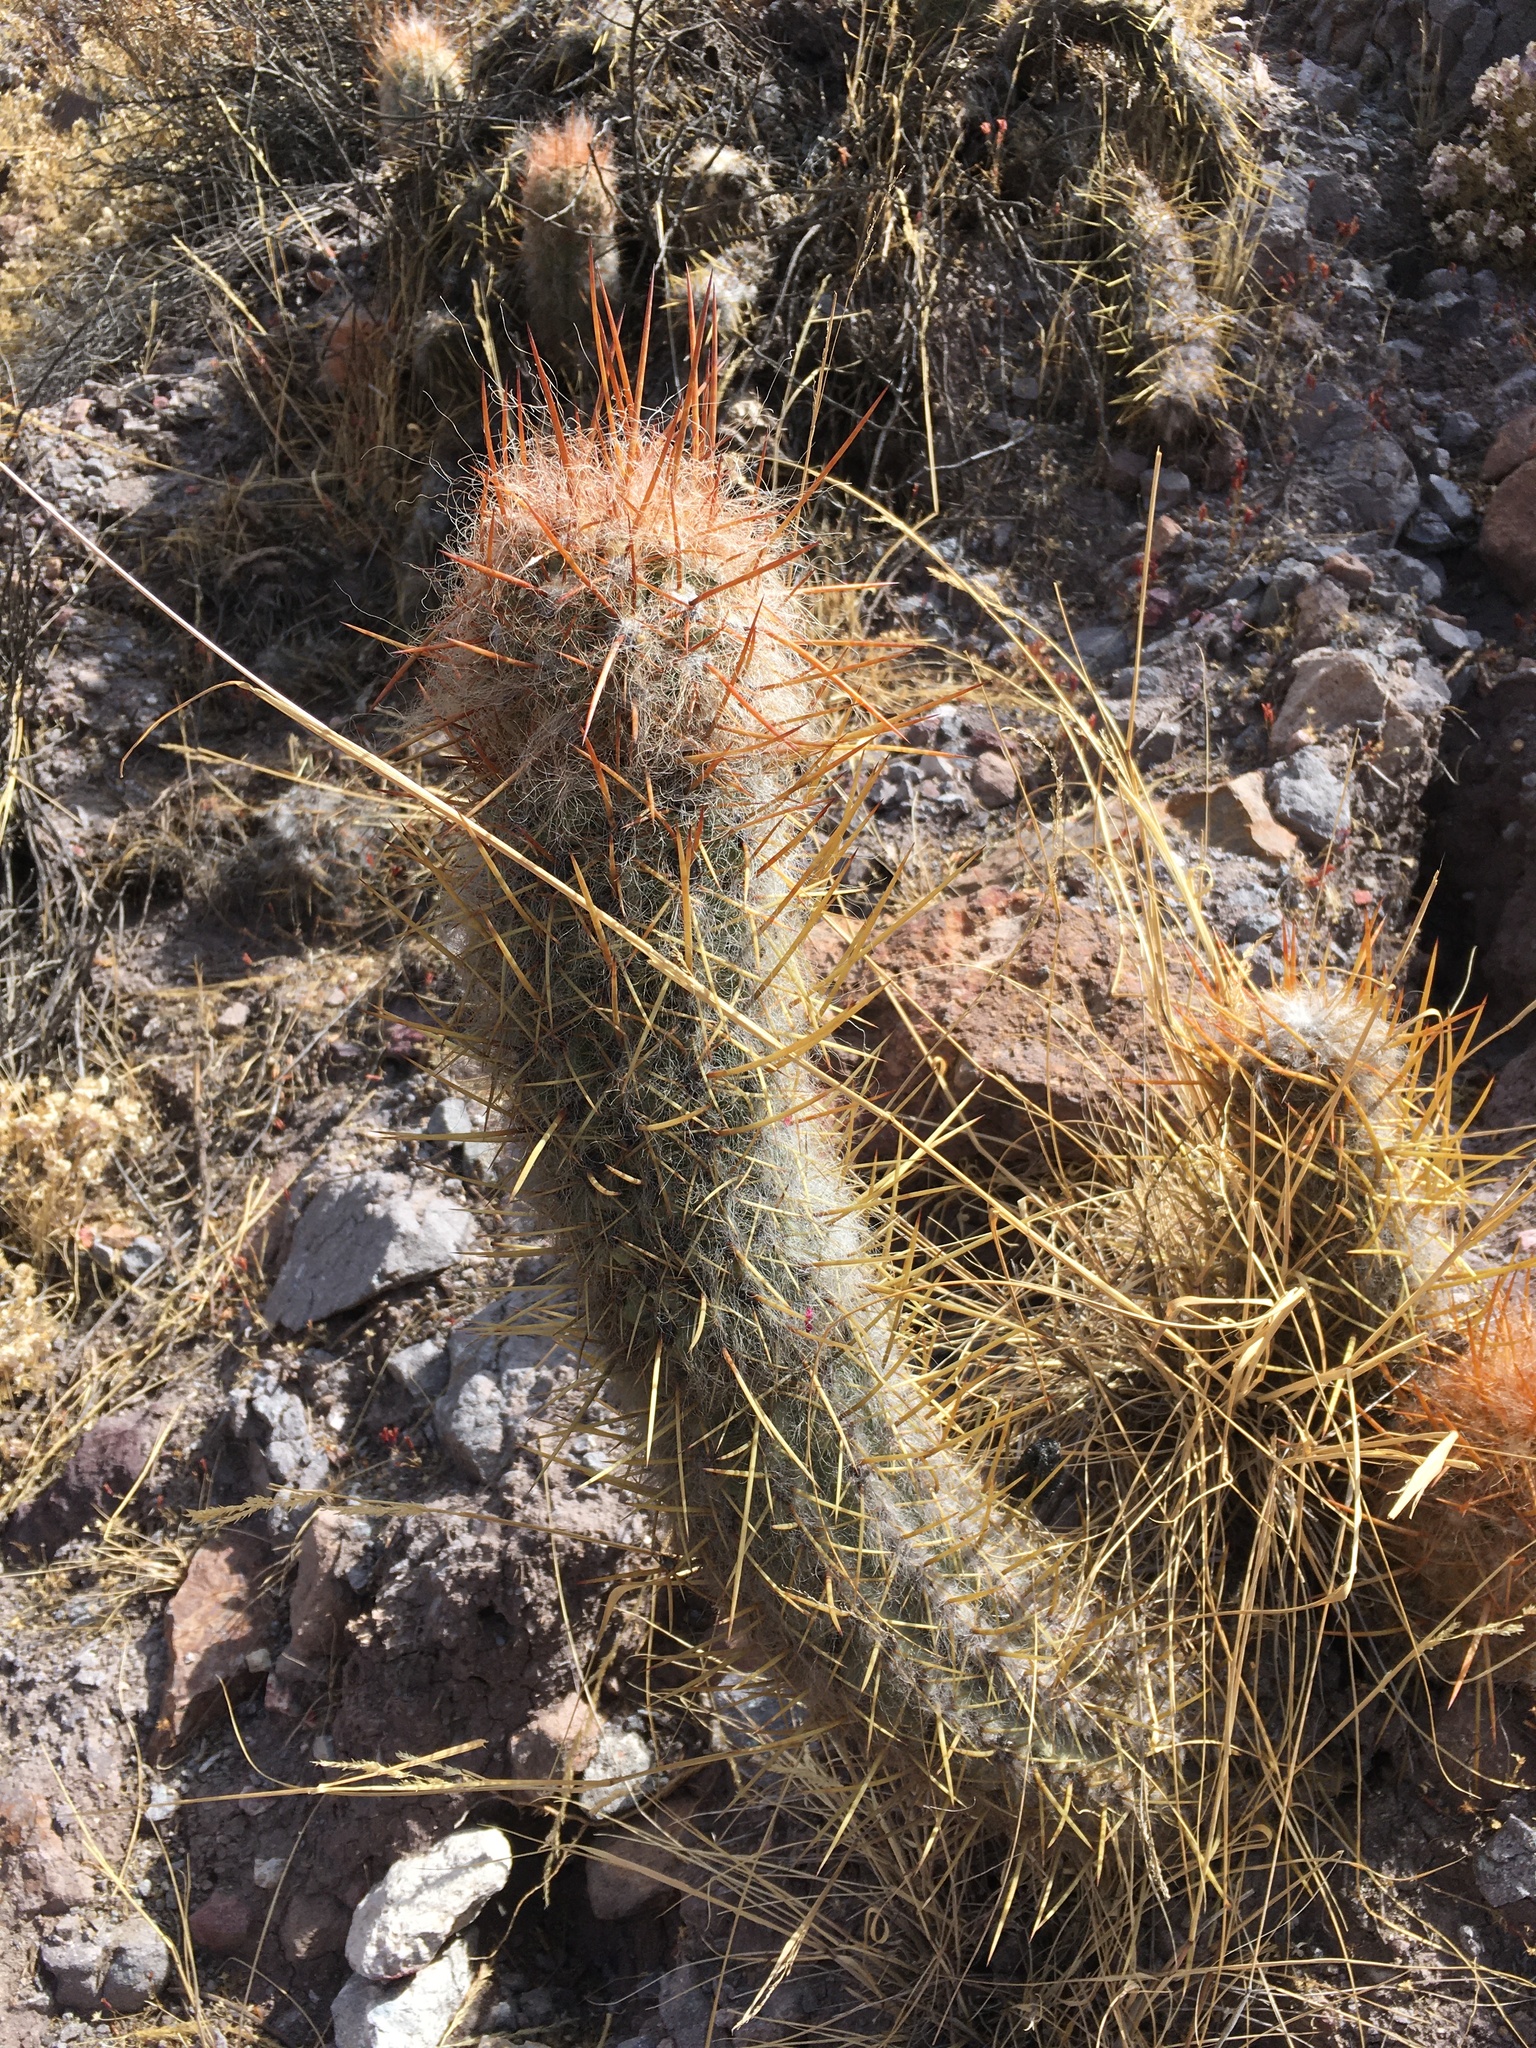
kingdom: Plantae
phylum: Tracheophyta
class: Magnoliopsida
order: Caryophyllales
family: Cactaceae
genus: Oreocereus
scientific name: Oreocereus leucotrichus
